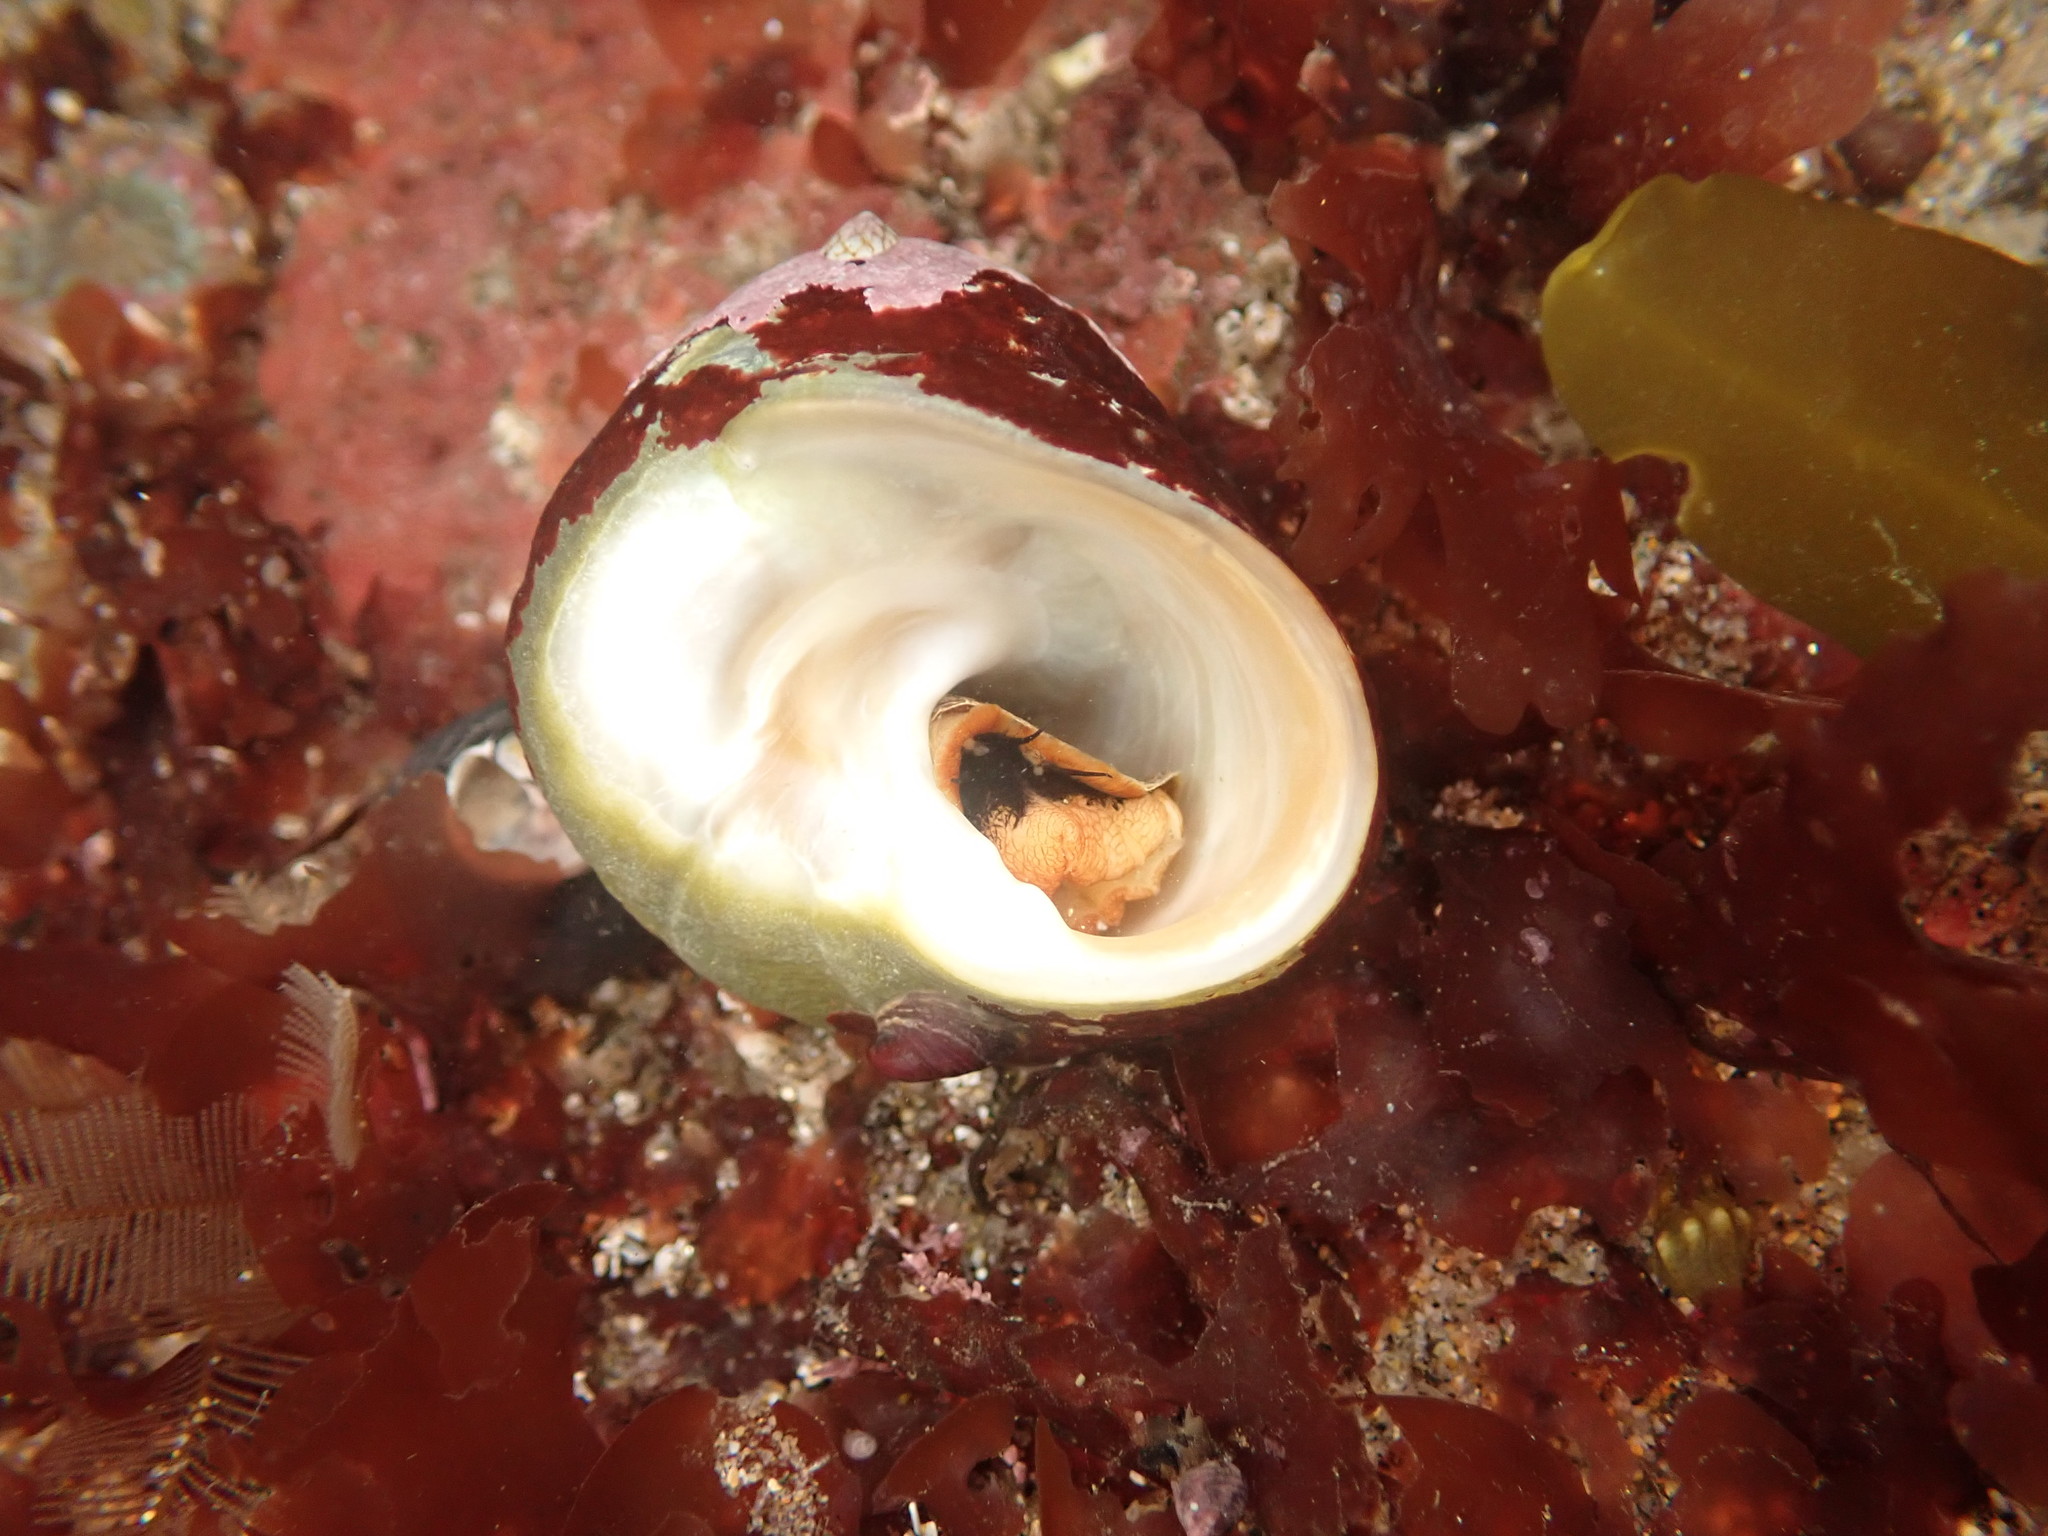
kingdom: Animalia
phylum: Mollusca
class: Gastropoda
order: Trochida
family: Tegulidae
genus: Tegula
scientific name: Tegula brunnea
